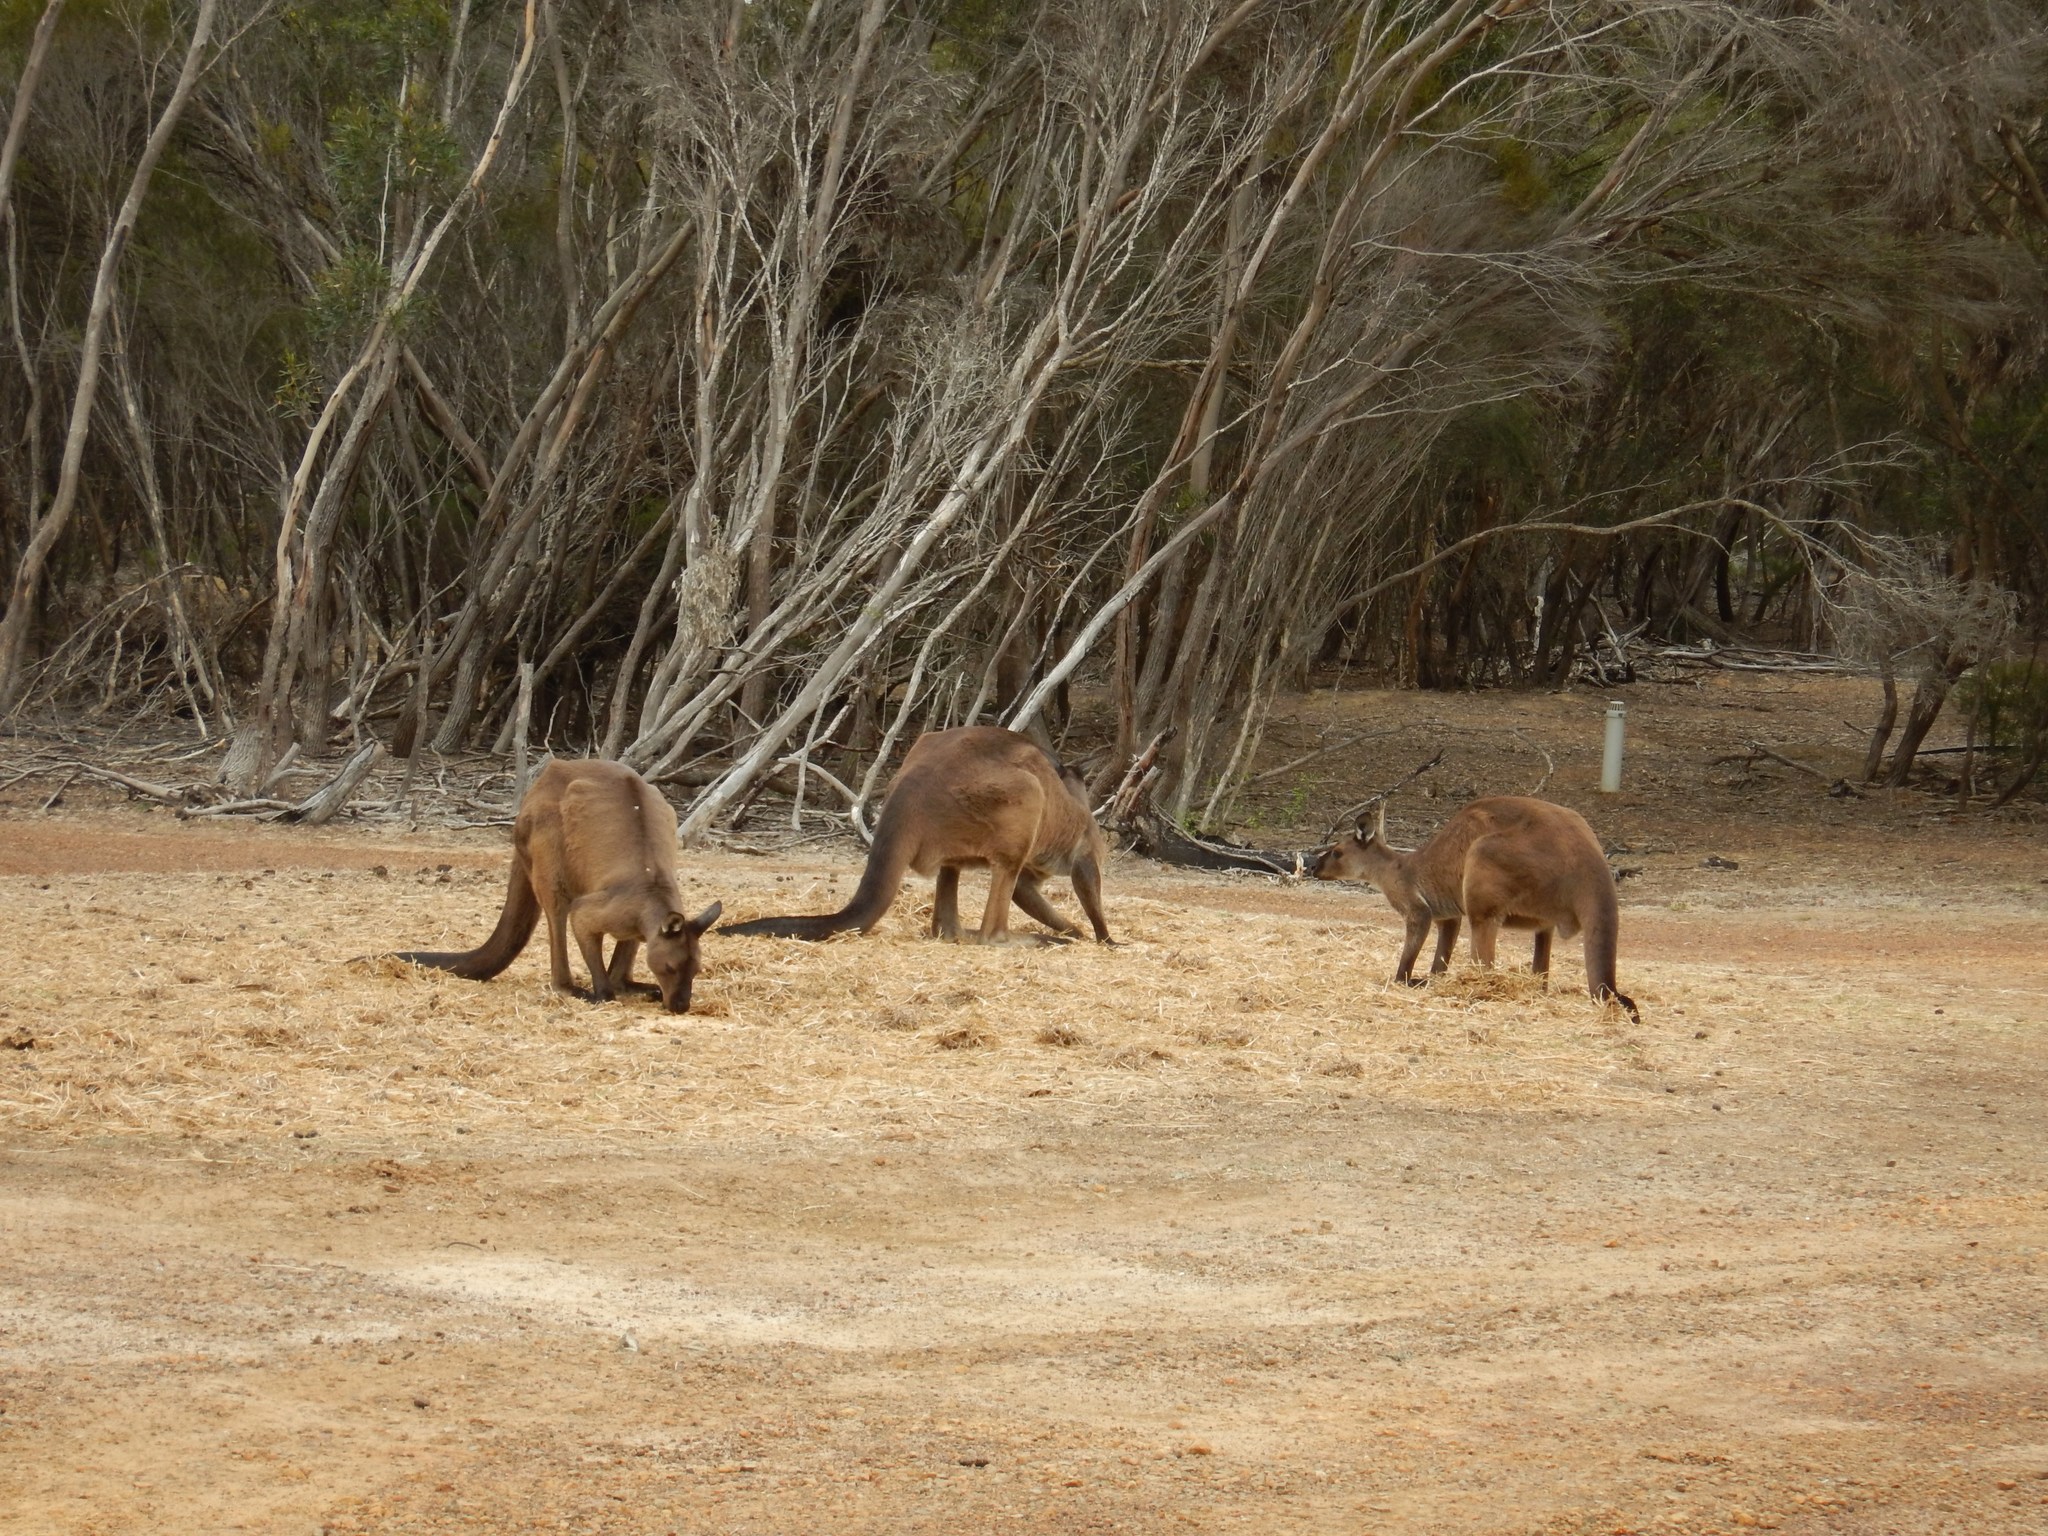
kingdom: Animalia
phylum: Chordata
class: Mammalia
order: Diprotodontia
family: Macropodidae
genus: Macropus
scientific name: Macropus fuliginosus
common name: Western grey kangaroo
